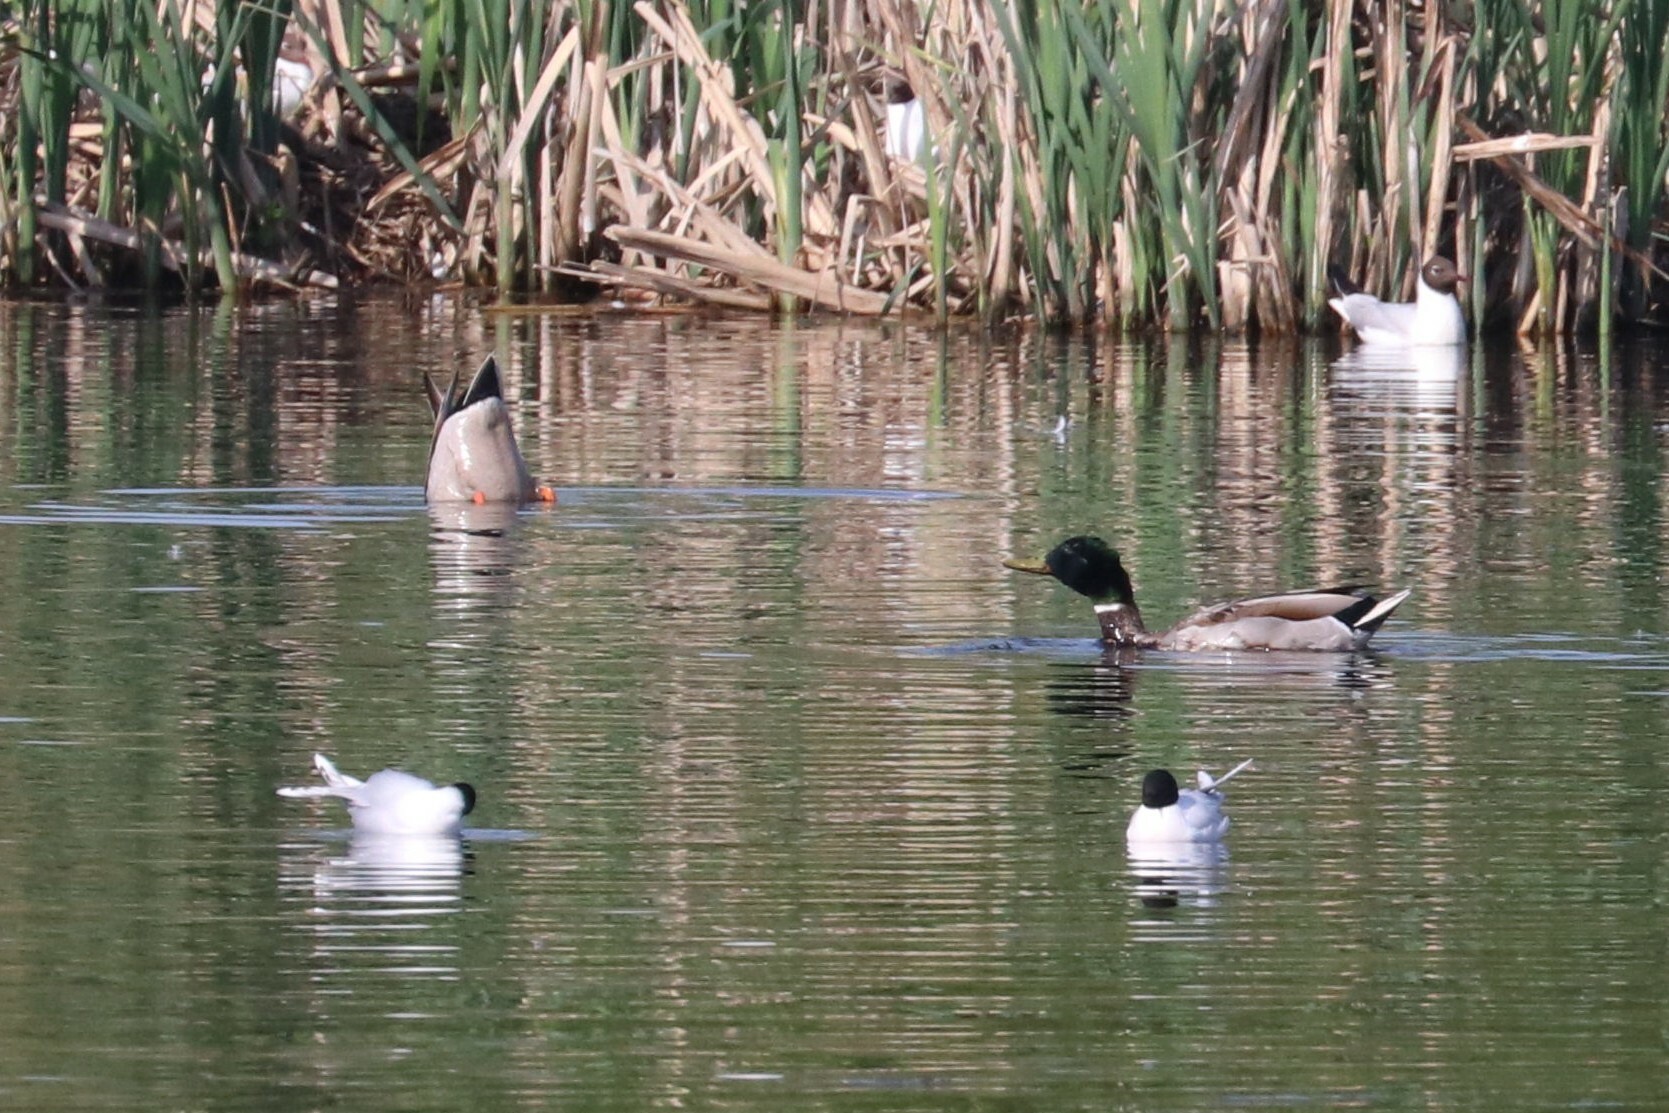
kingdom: Animalia
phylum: Chordata
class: Aves
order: Anseriformes
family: Anatidae
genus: Anas
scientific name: Anas platyrhynchos
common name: Mallard
